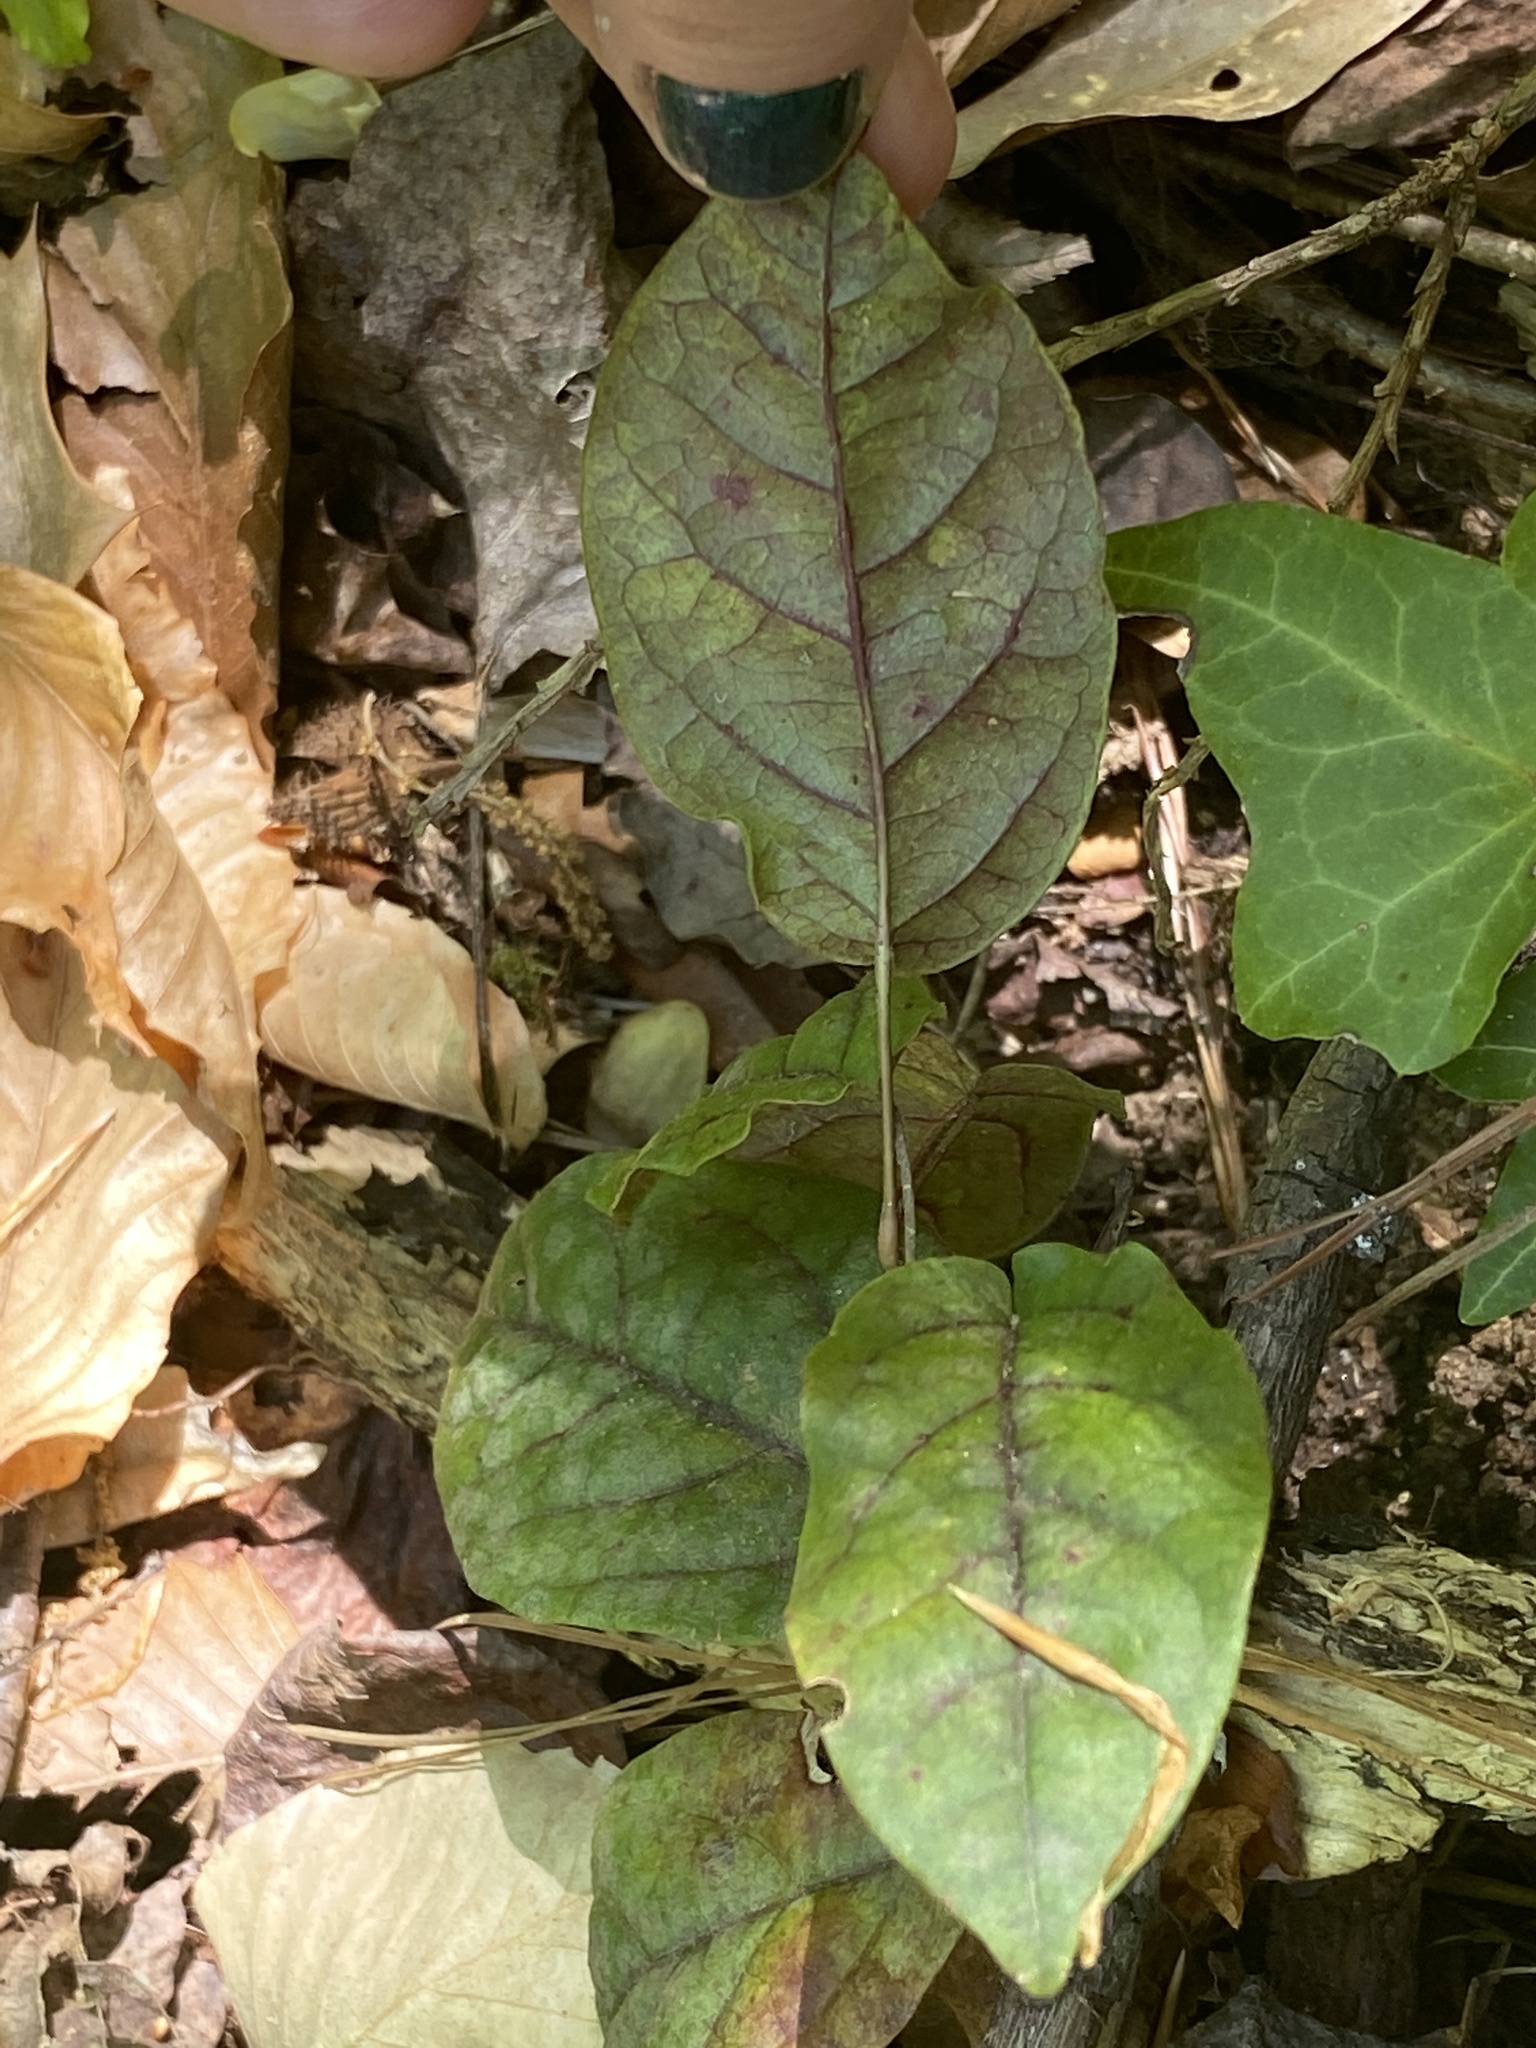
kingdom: Plantae
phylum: Tracheophyta
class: Magnoliopsida
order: Lamiales
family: Bignoniaceae
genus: Bignonia
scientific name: Bignonia capreolata
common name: Crossvine
